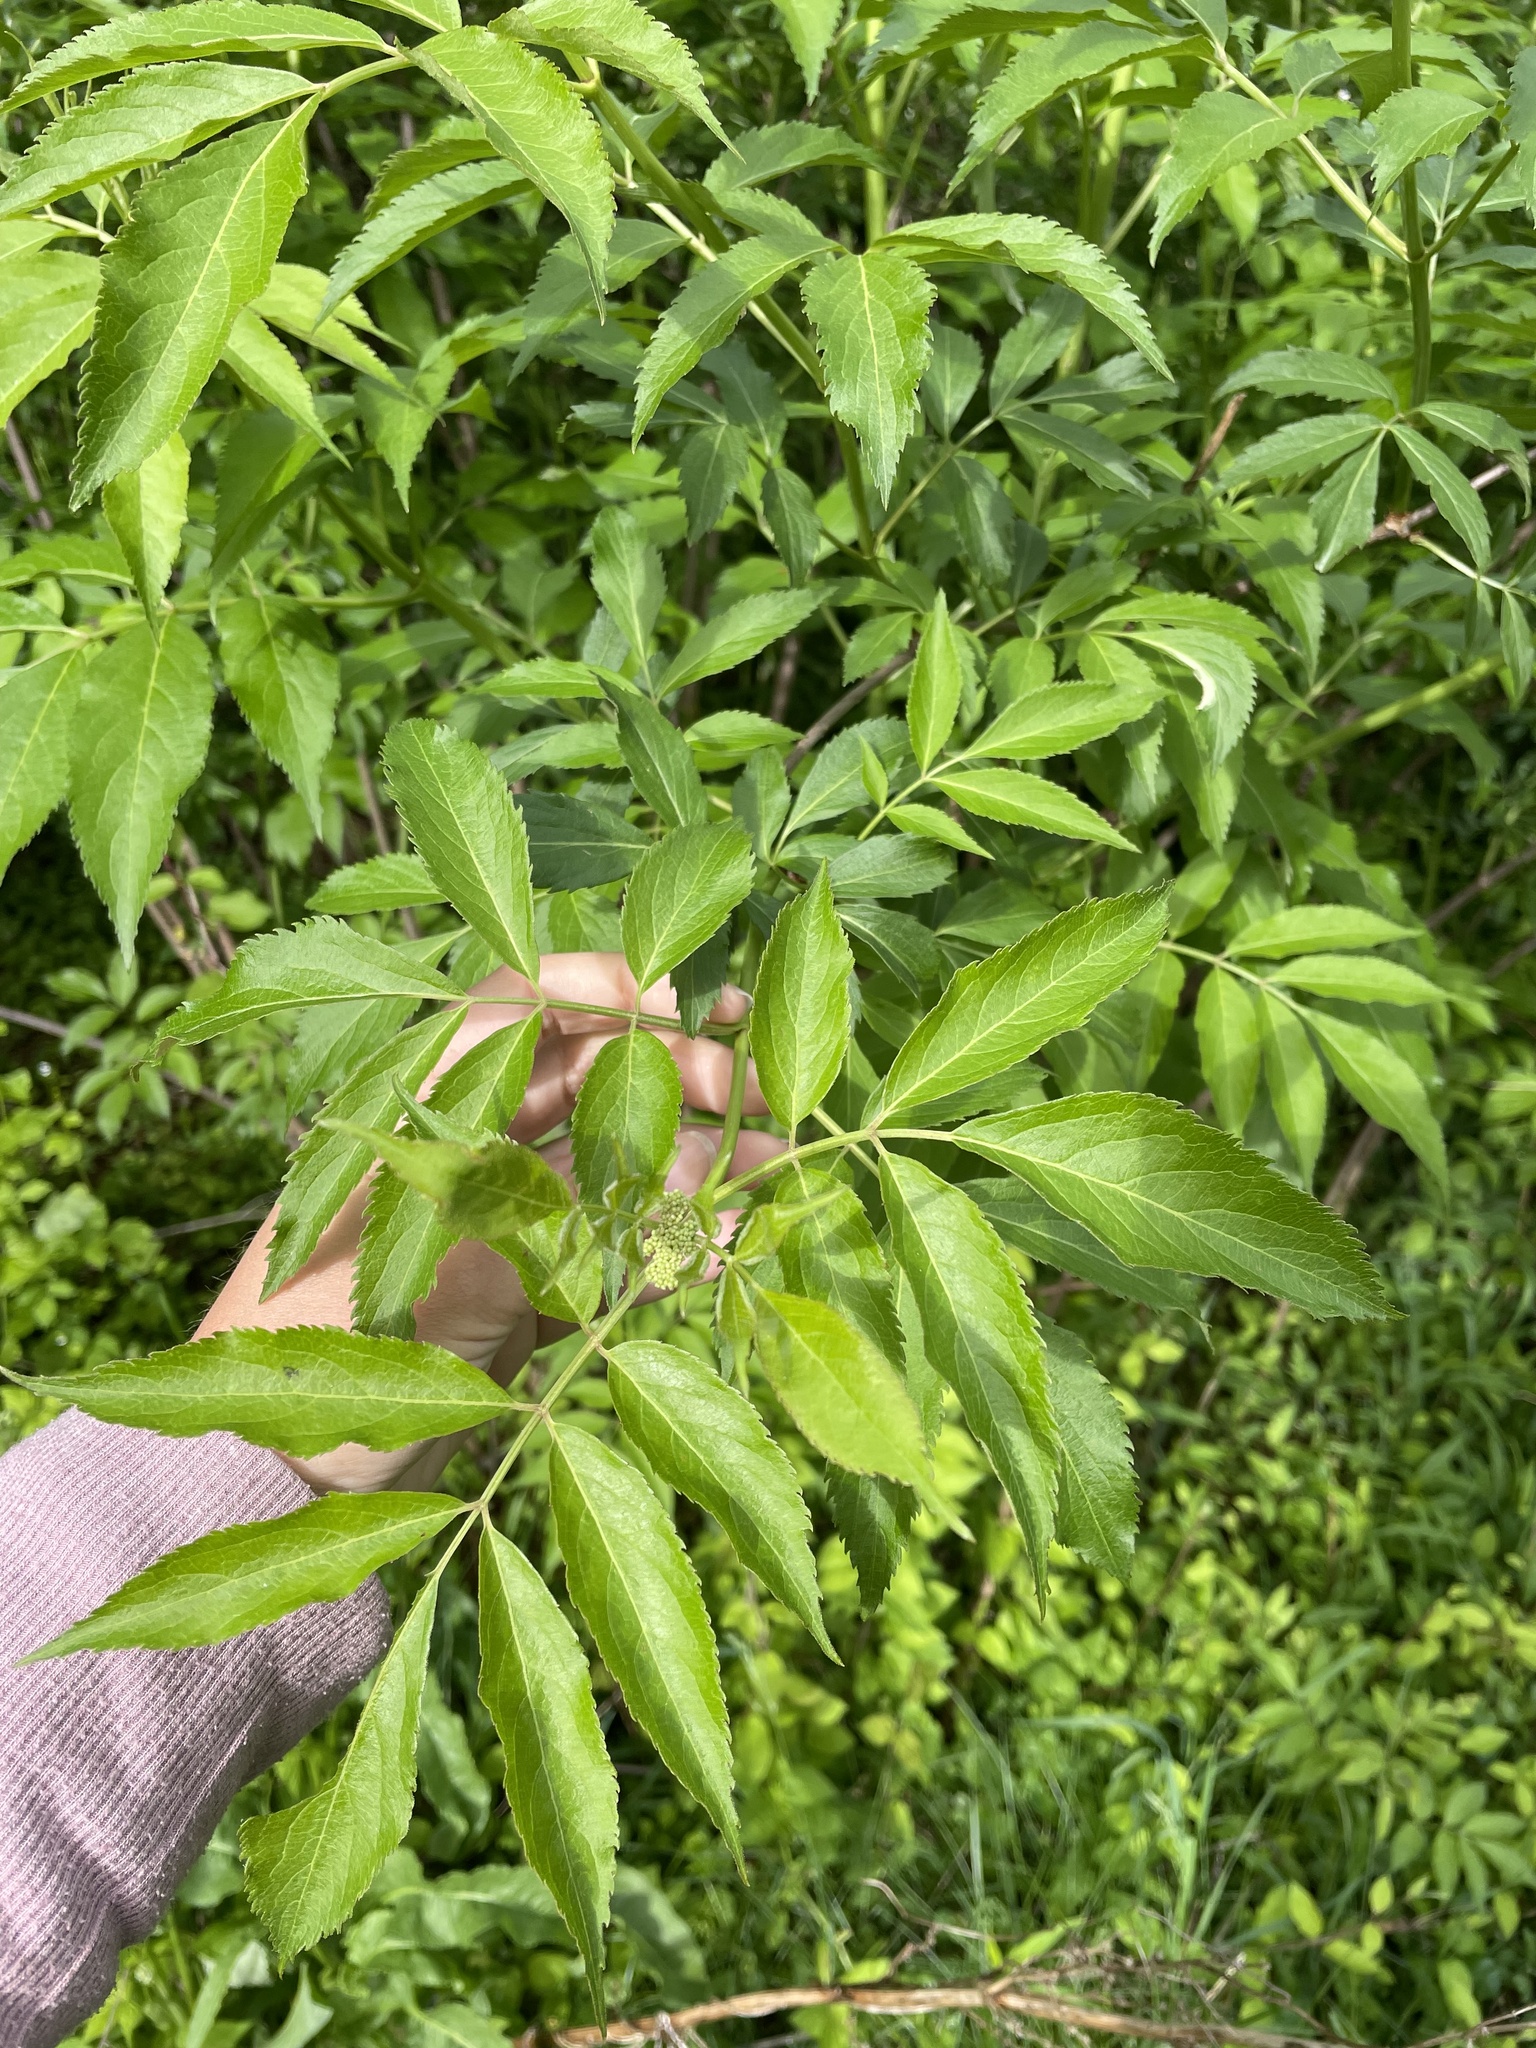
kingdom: Plantae
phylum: Tracheophyta
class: Magnoliopsida
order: Dipsacales
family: Viburnaceae
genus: Sambucus
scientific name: Sambucus canadensis
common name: American elder
